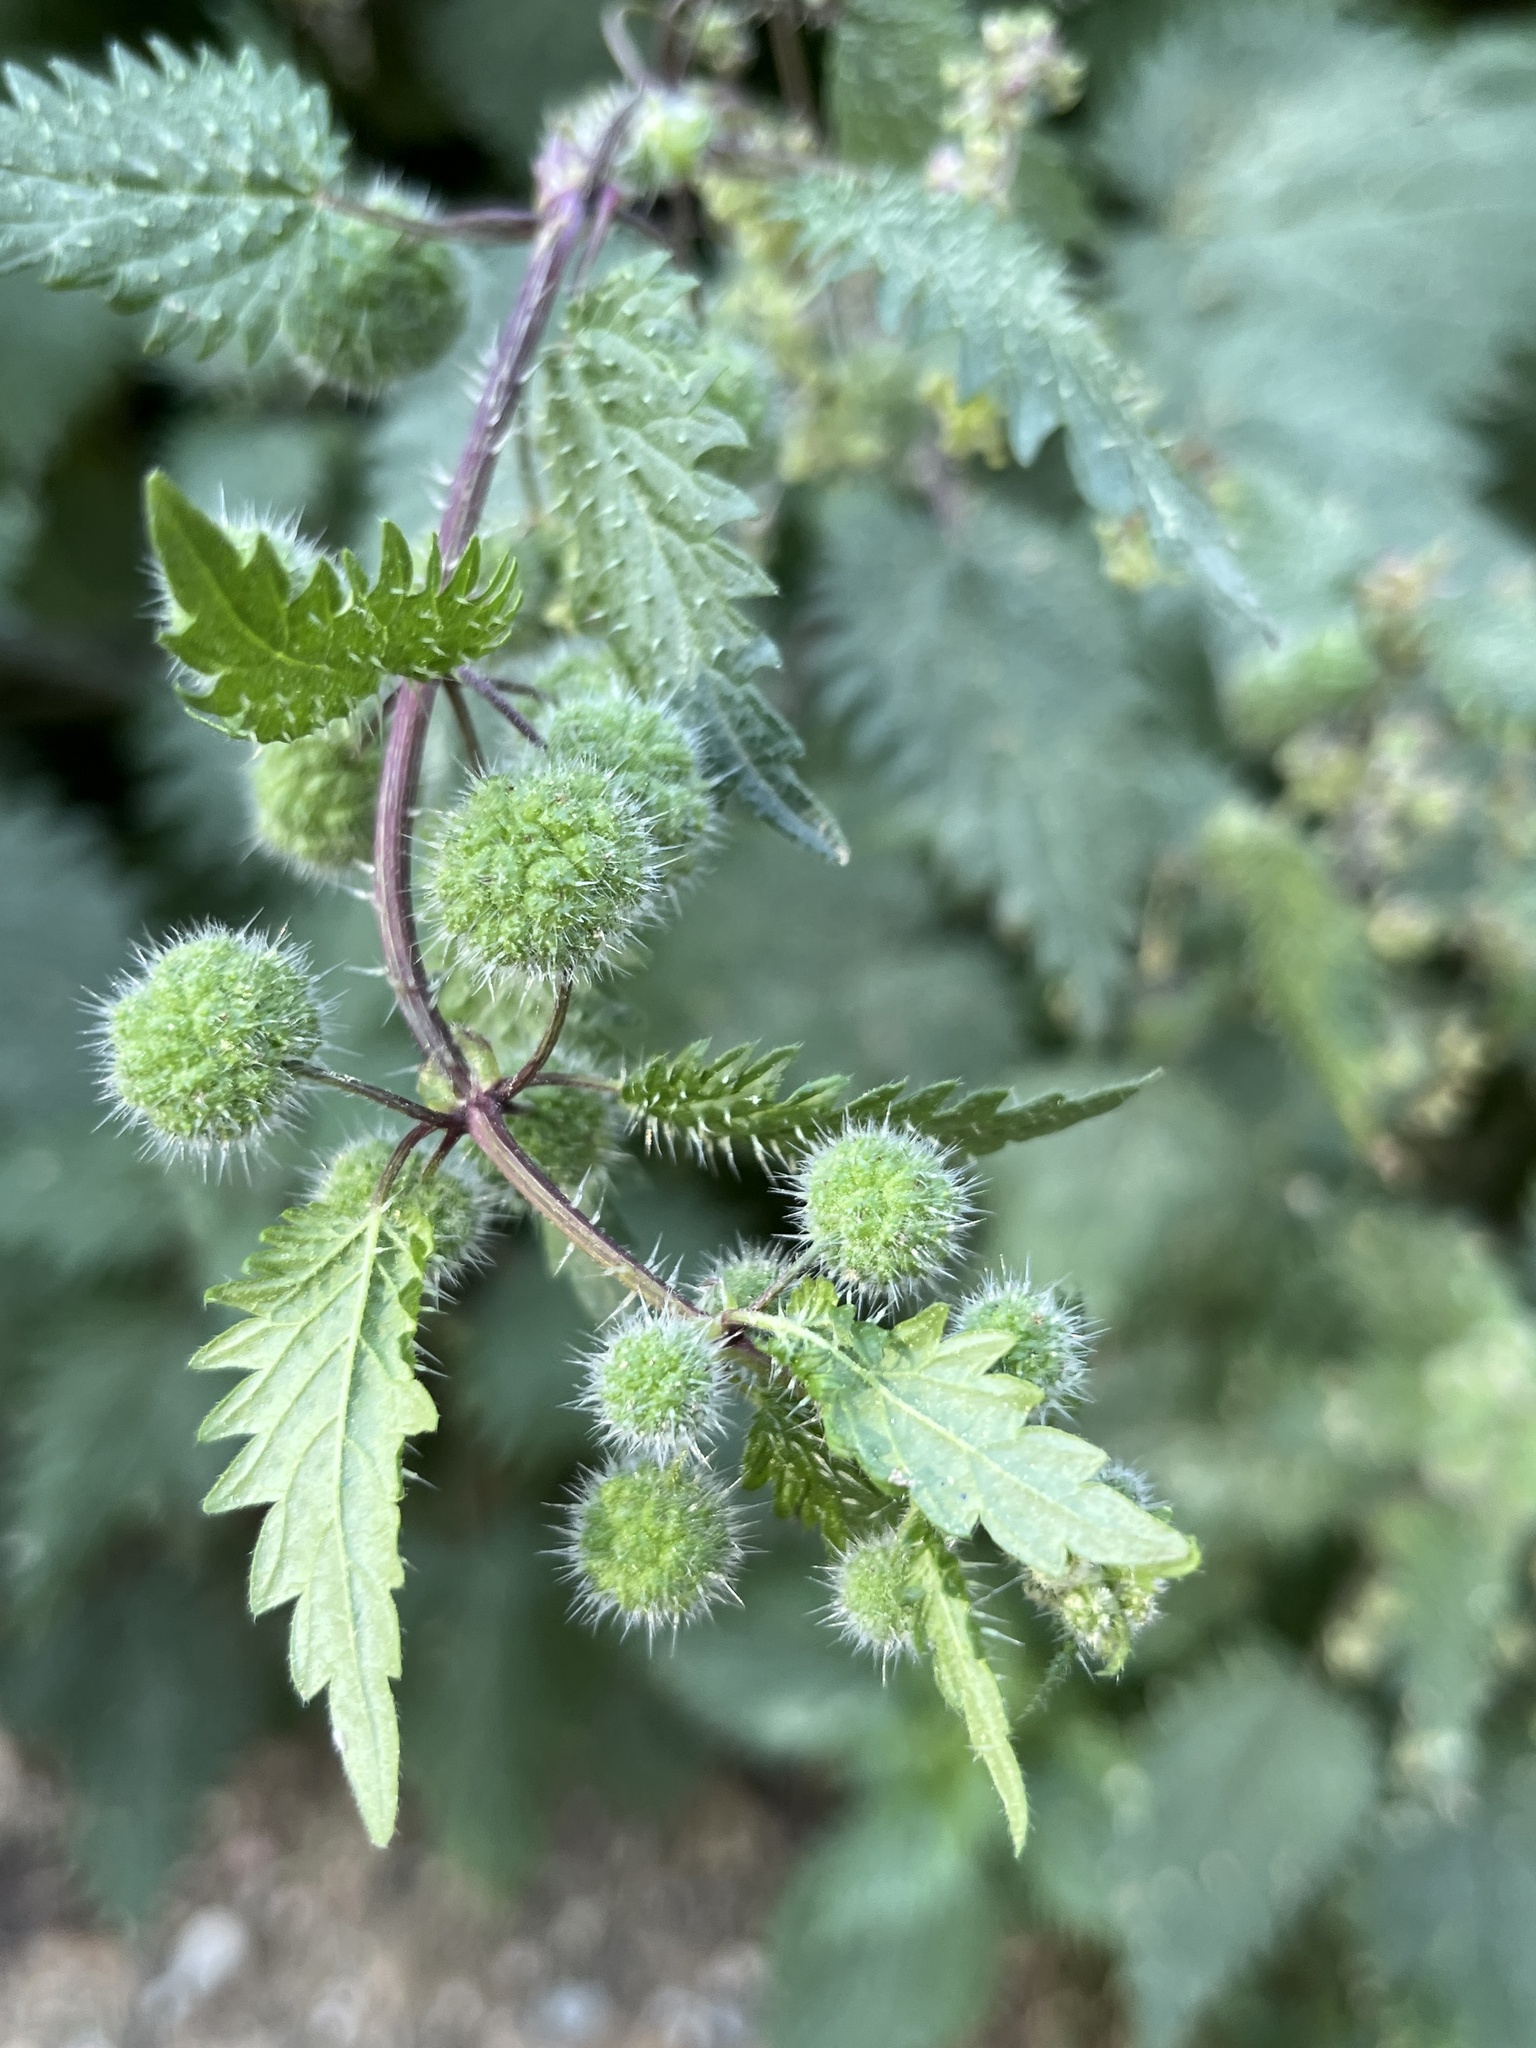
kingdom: Plantae
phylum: Tracheophyta
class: Magnoliopsida
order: Rosales
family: Urticaceae
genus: Urtica
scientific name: Urtica pilulifera
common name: Roman nettle
